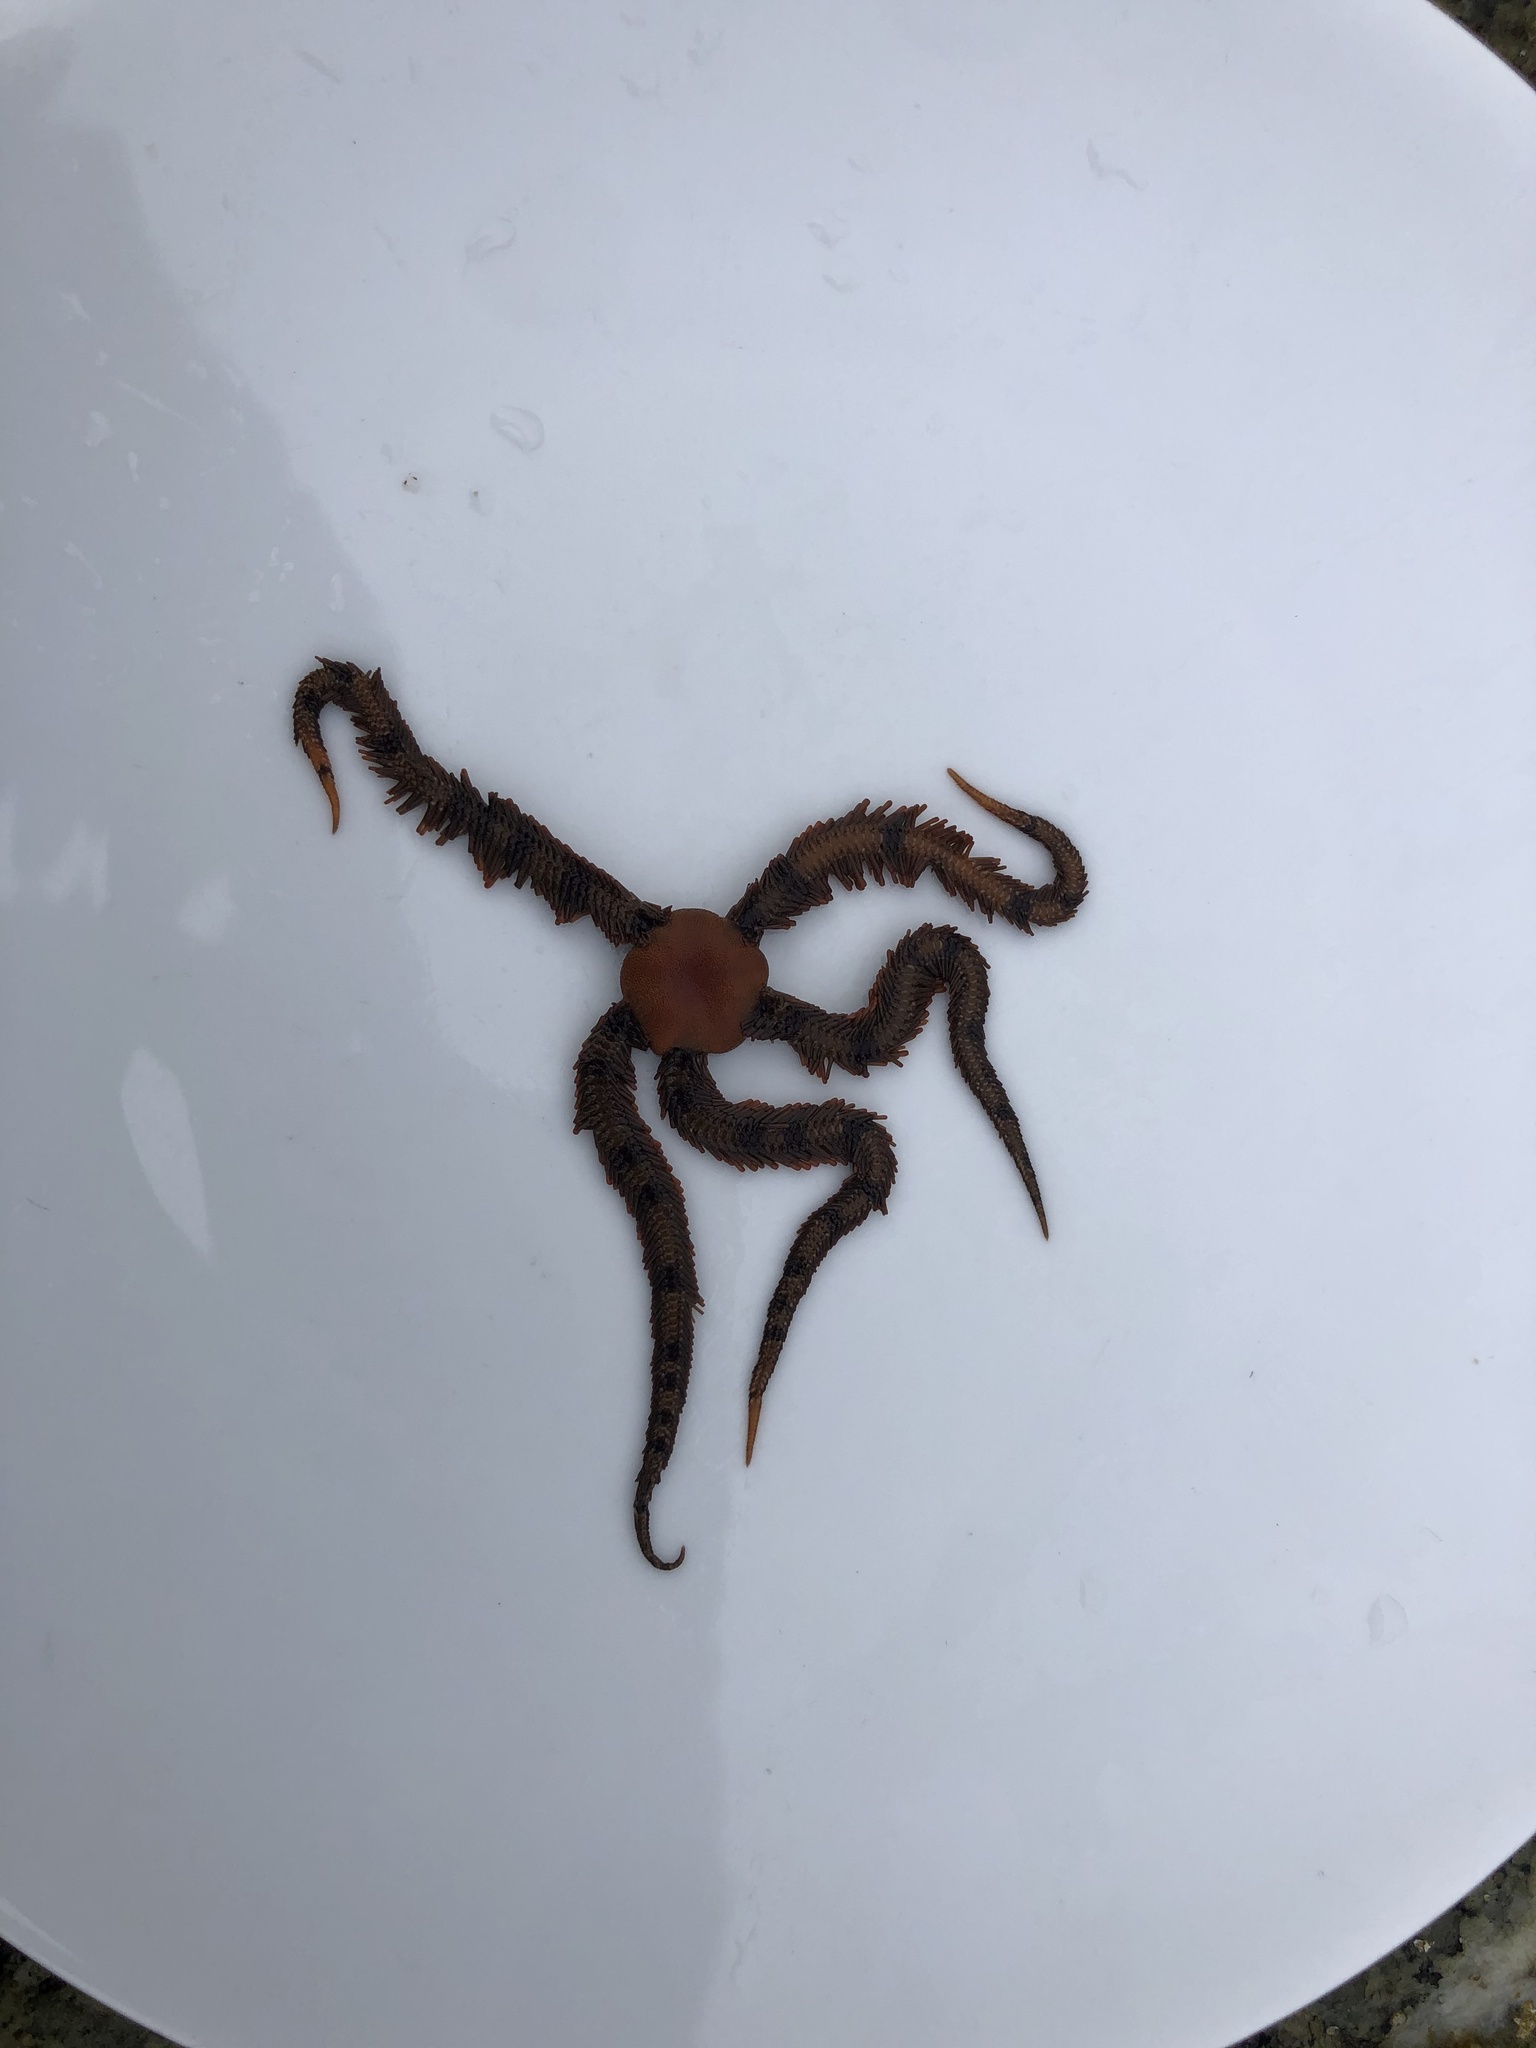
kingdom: Animalia
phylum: Echinodermata
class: Ophiuroidea
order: Ophiacanthida
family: Ophiopteridae
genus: Ophiopteris
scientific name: Ophiopteris papillosa
